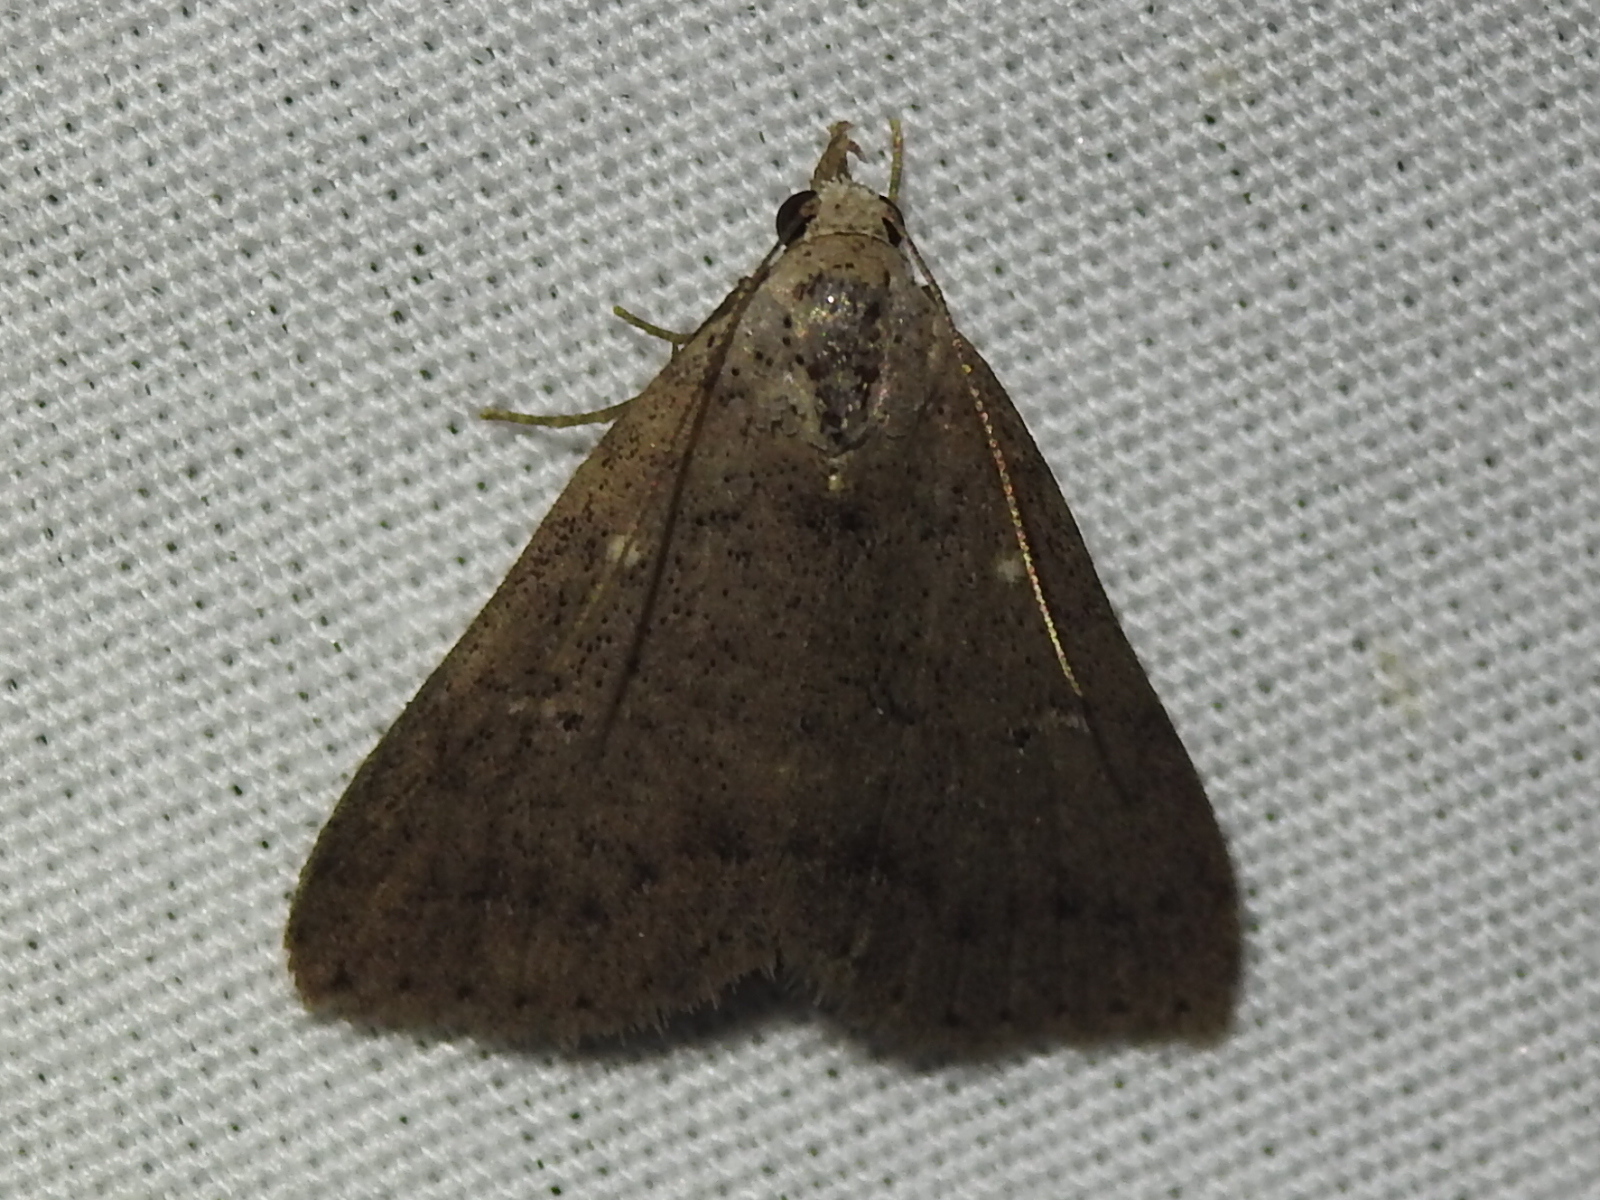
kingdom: Animalia
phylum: Arthropoda
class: Insecta
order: Lepidoptera
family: Erebidae
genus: Bleptina
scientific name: Bleptina caradrinalis
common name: Bent-winged owlet
